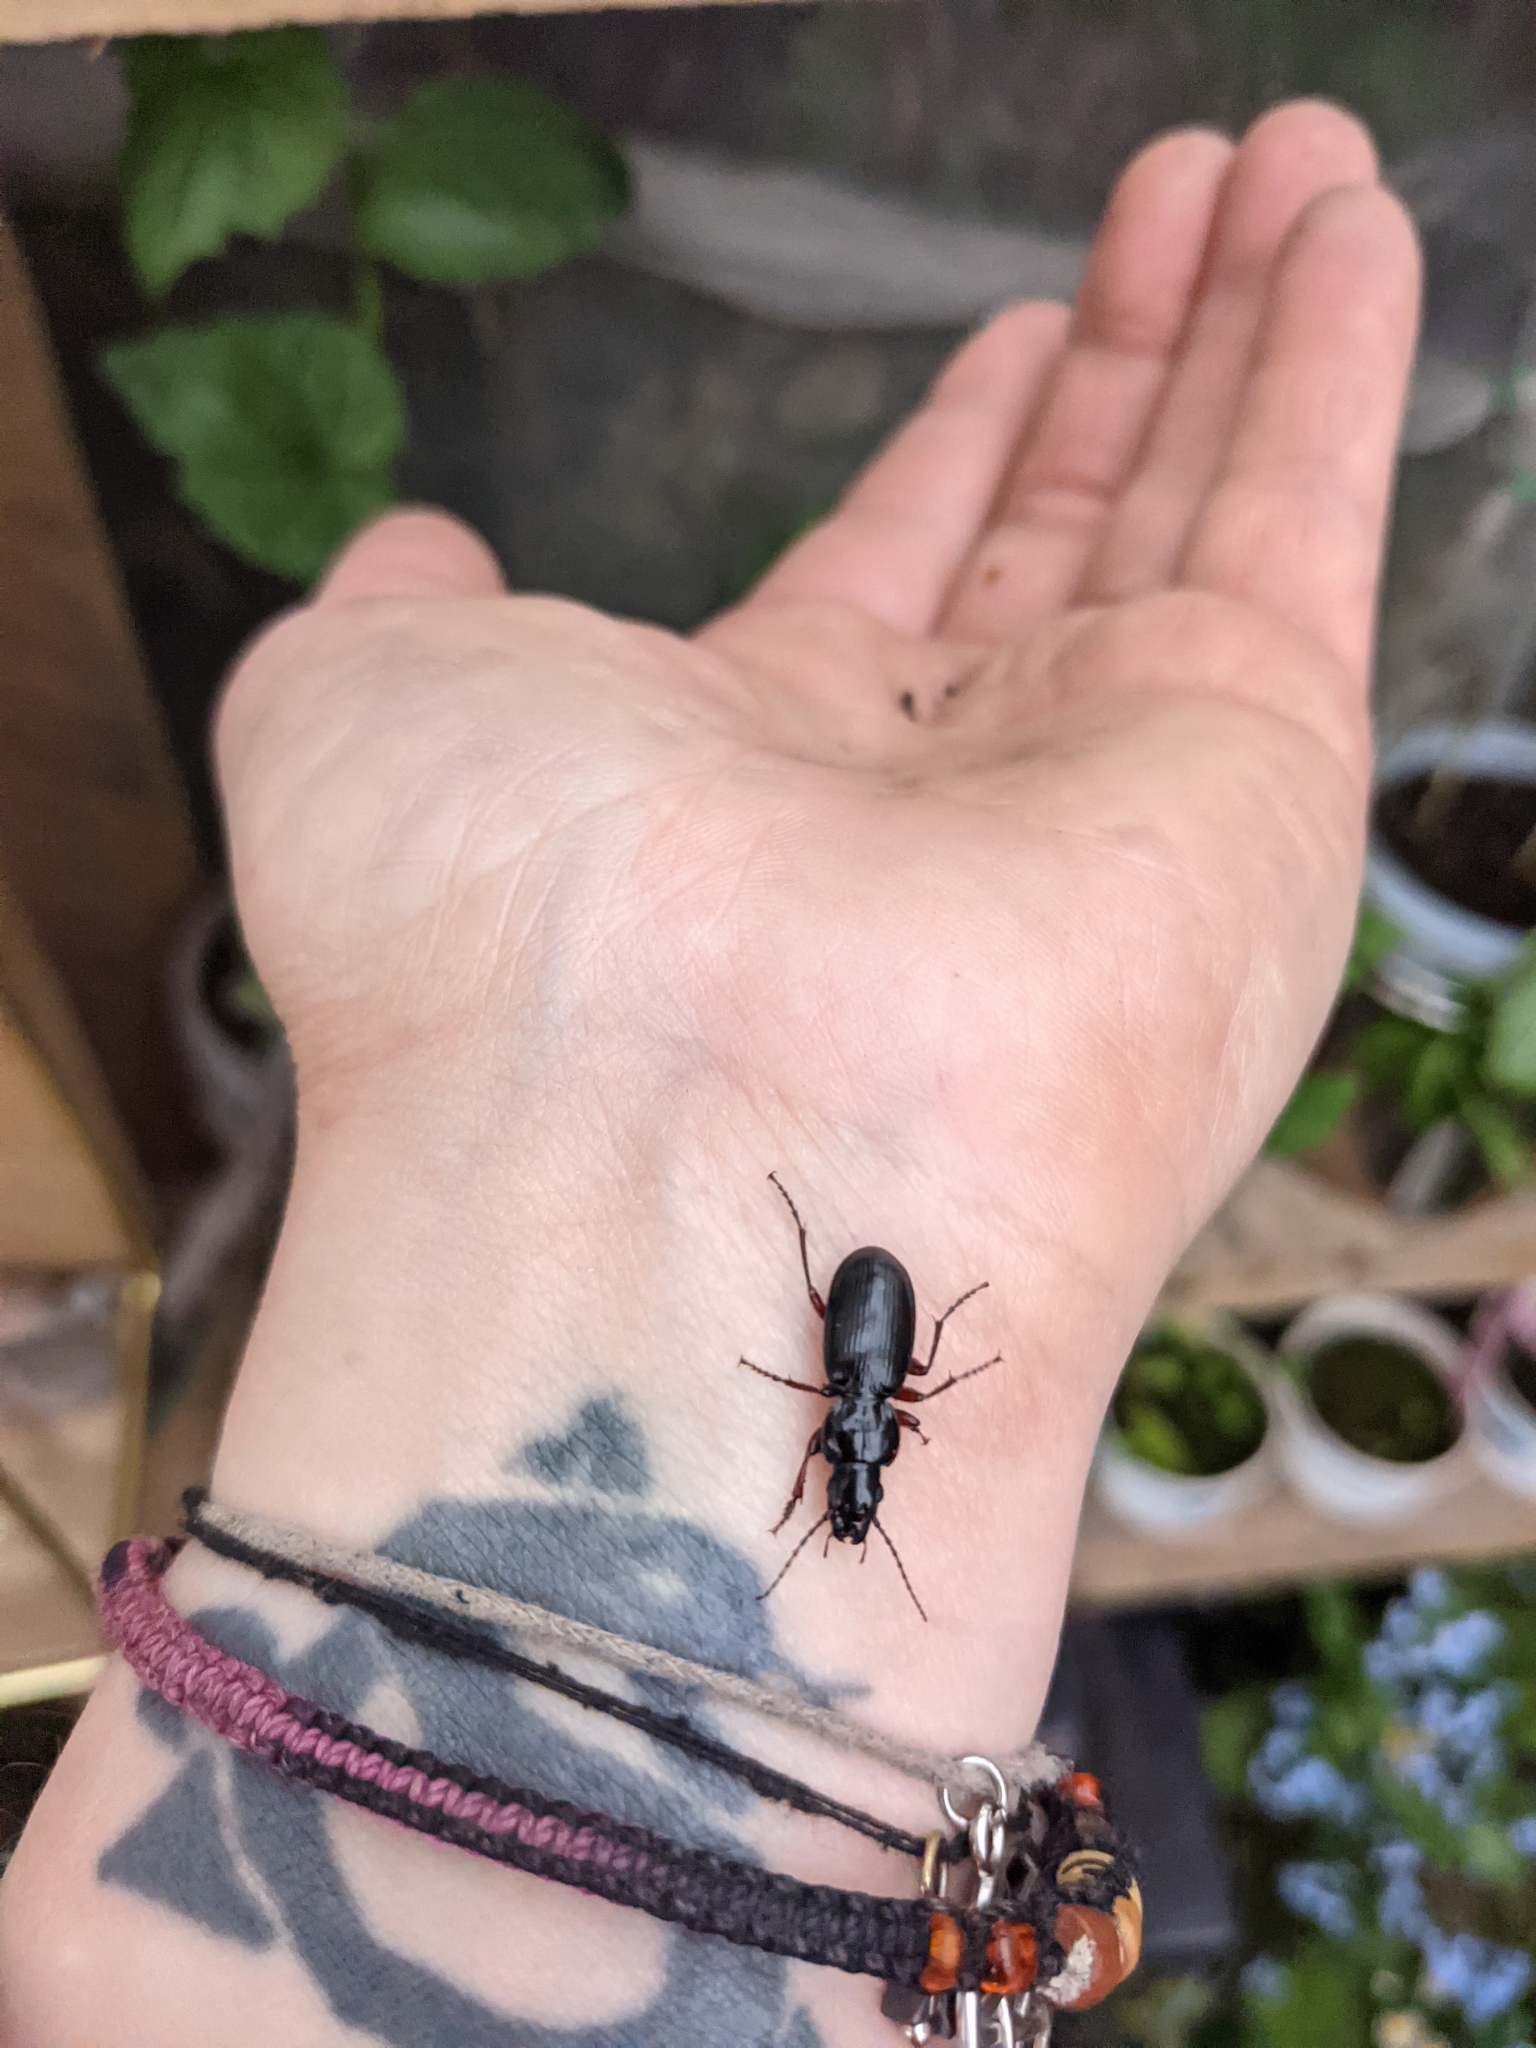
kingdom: Animalia
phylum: Arthropoda
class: Insecta
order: Coleoptera
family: Carabidae
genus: Pterostichus
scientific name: Pterostichus madidus
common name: Black clock
